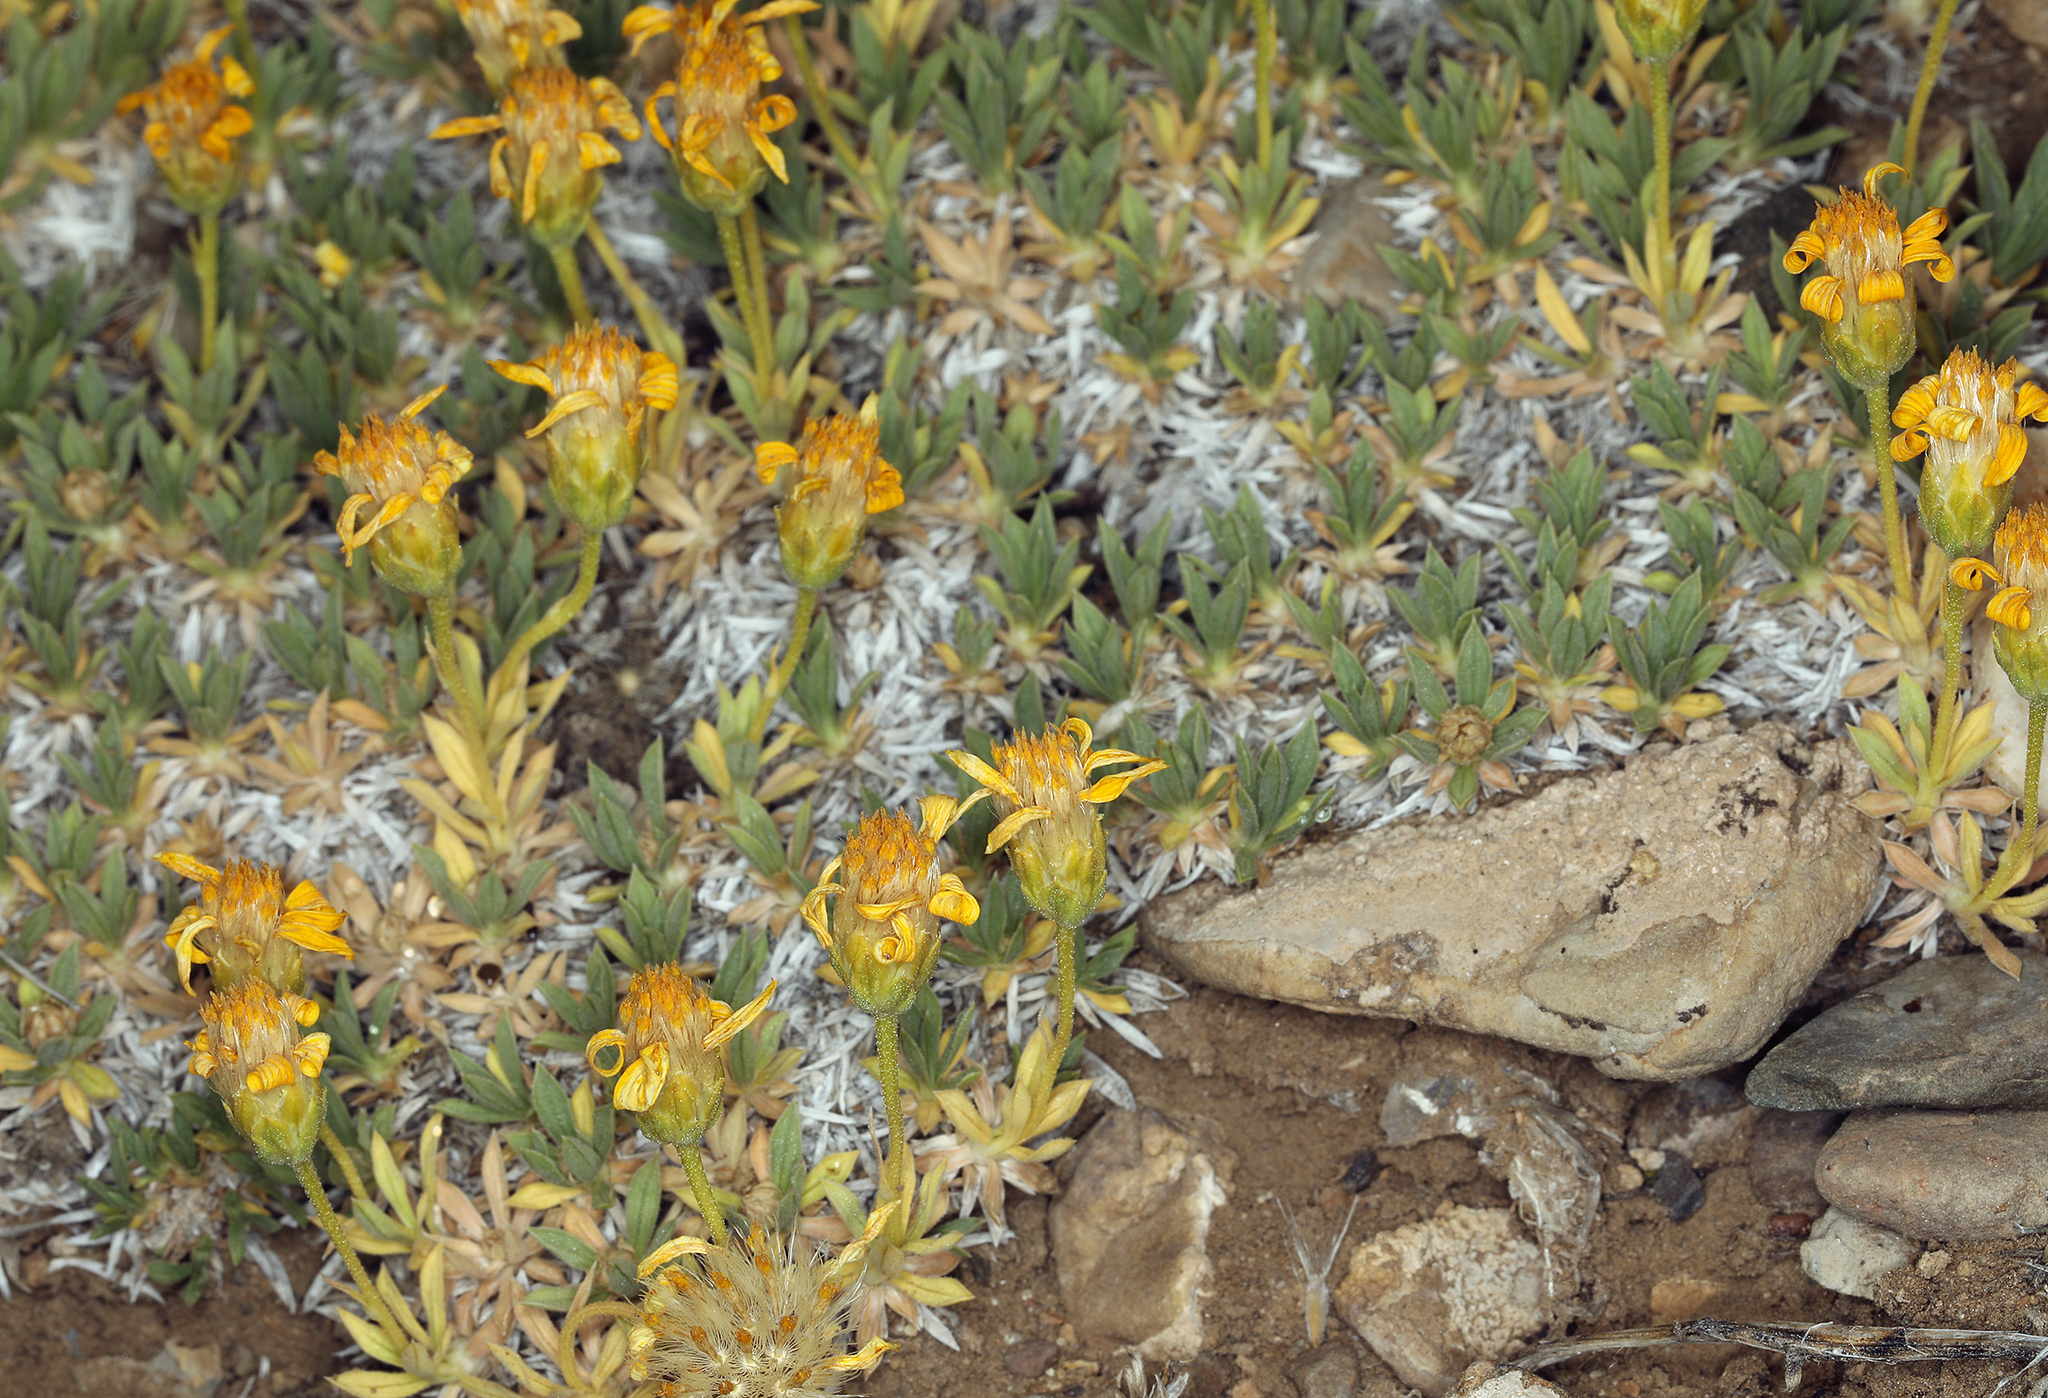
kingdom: Plantae
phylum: Tracheophyta
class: Magnoliopsida
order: Asterales
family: Asteraceae
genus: Stenotus
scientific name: Stenotus acaulis
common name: Stemless goldenweed
